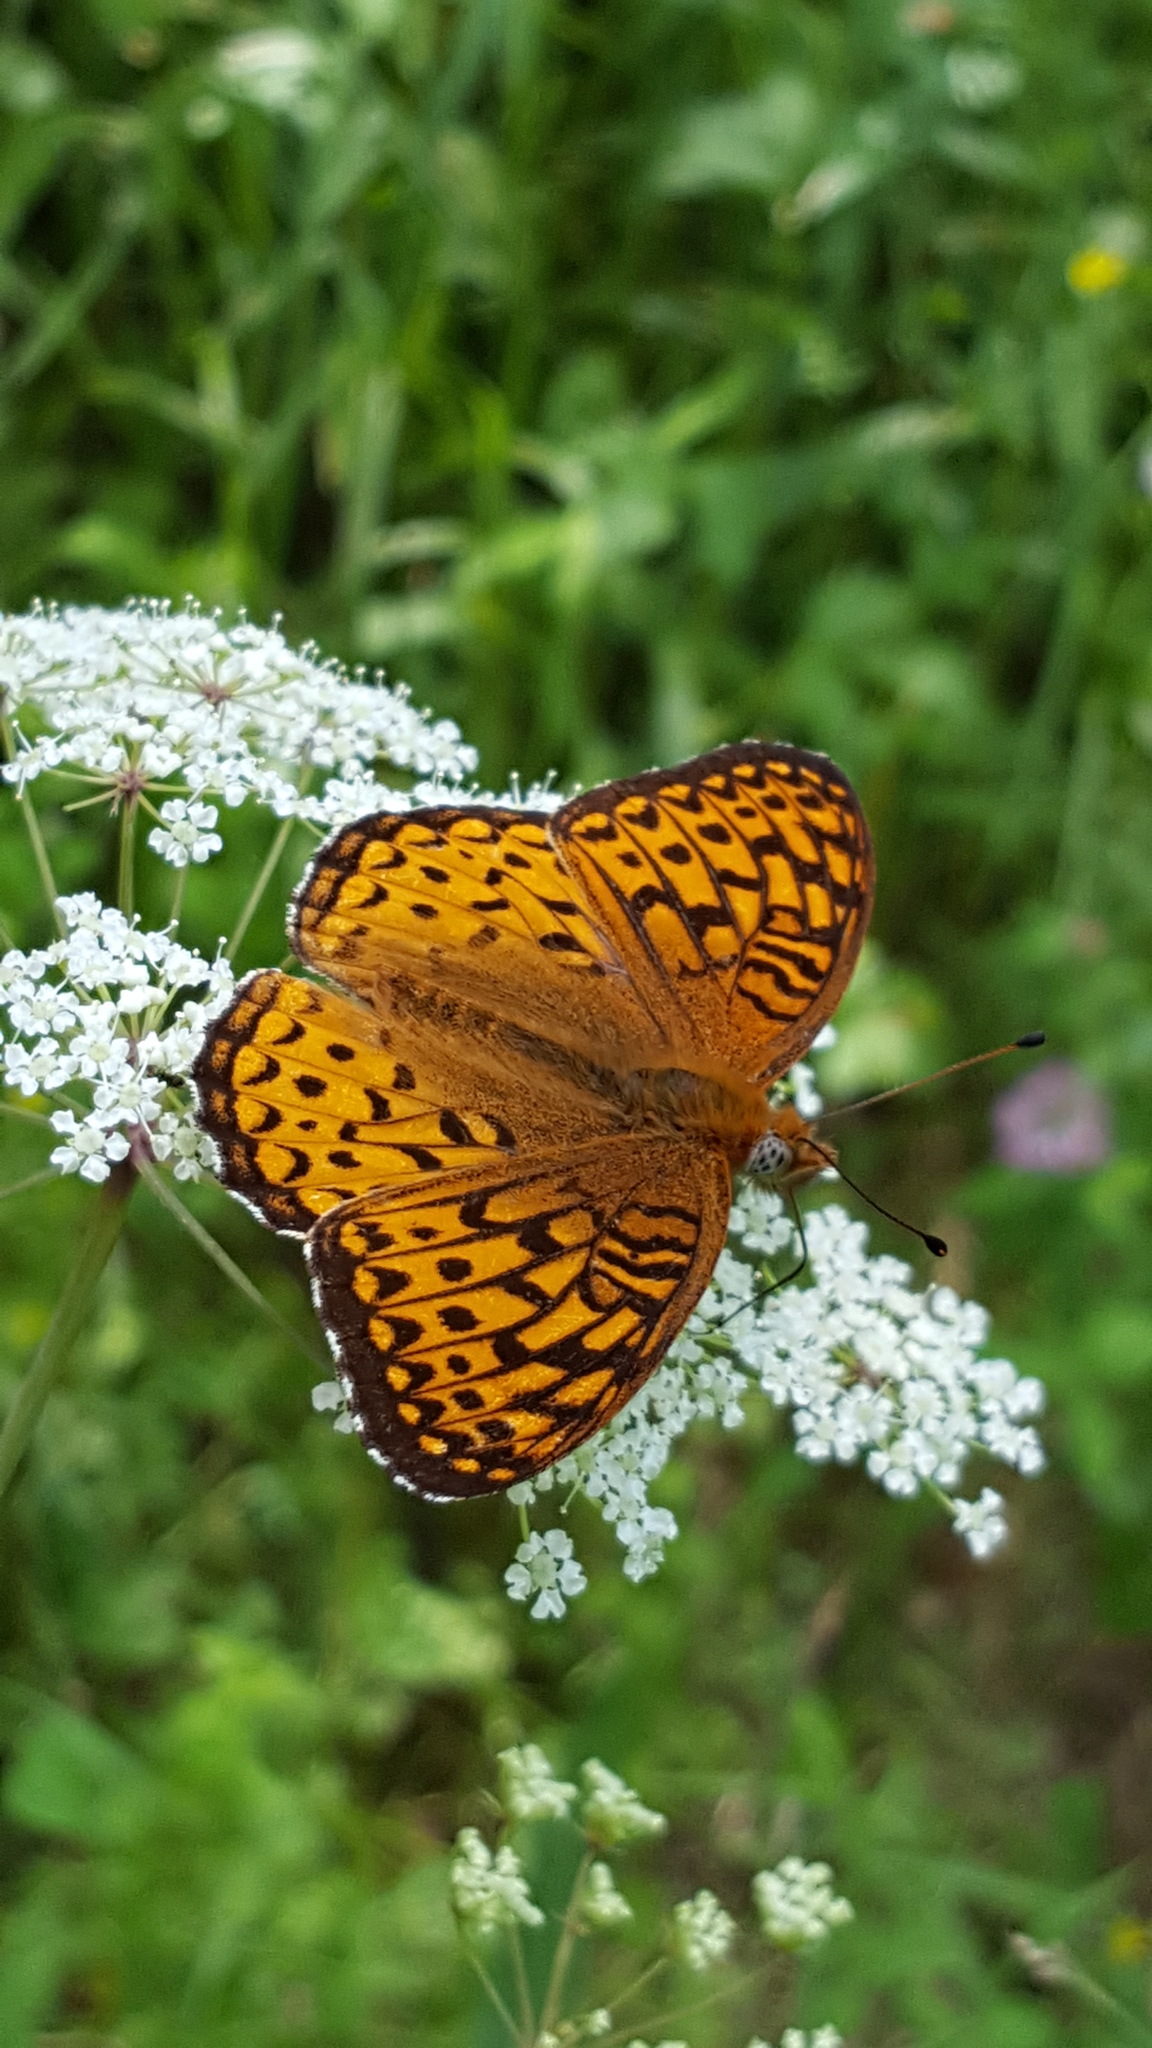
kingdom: Animalia
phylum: Arthropoda
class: Insecta
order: Lepidoptera
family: Nymphalidae
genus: Speyeria
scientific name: Speyeria atlantis
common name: Atlantis fritillary
